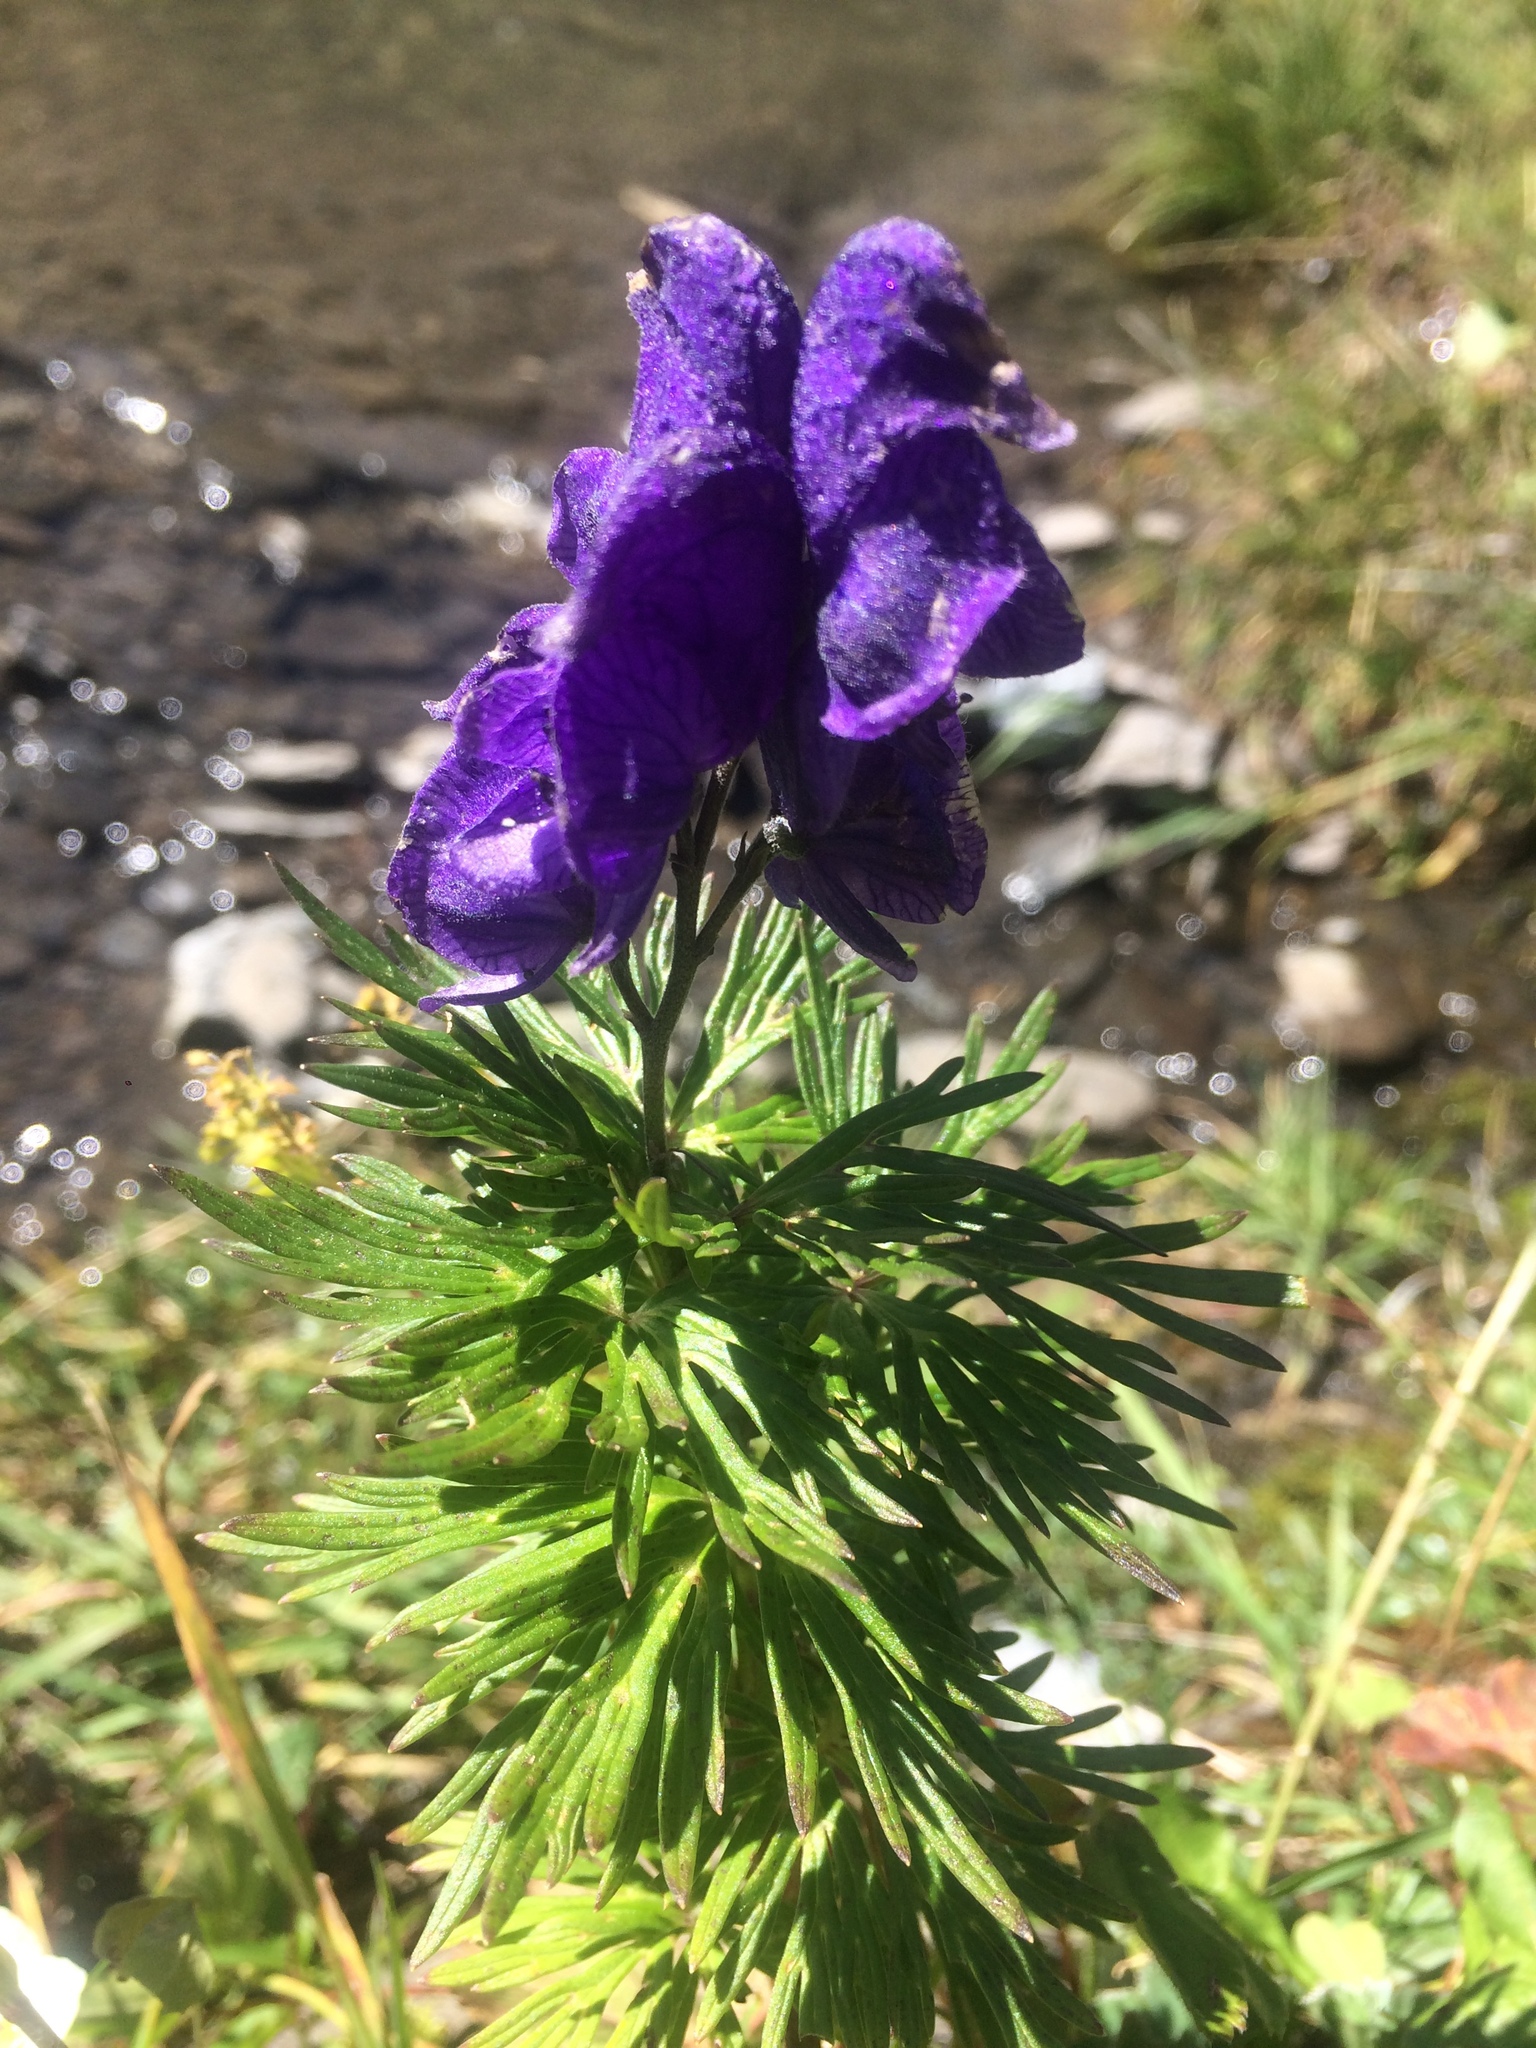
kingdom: Plantae
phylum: Tracheophyta
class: Magnoliopsida
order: Ranunculales
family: Ranunculaceae
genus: Aconitum
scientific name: Aconitum napellus
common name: Garden monkshood
